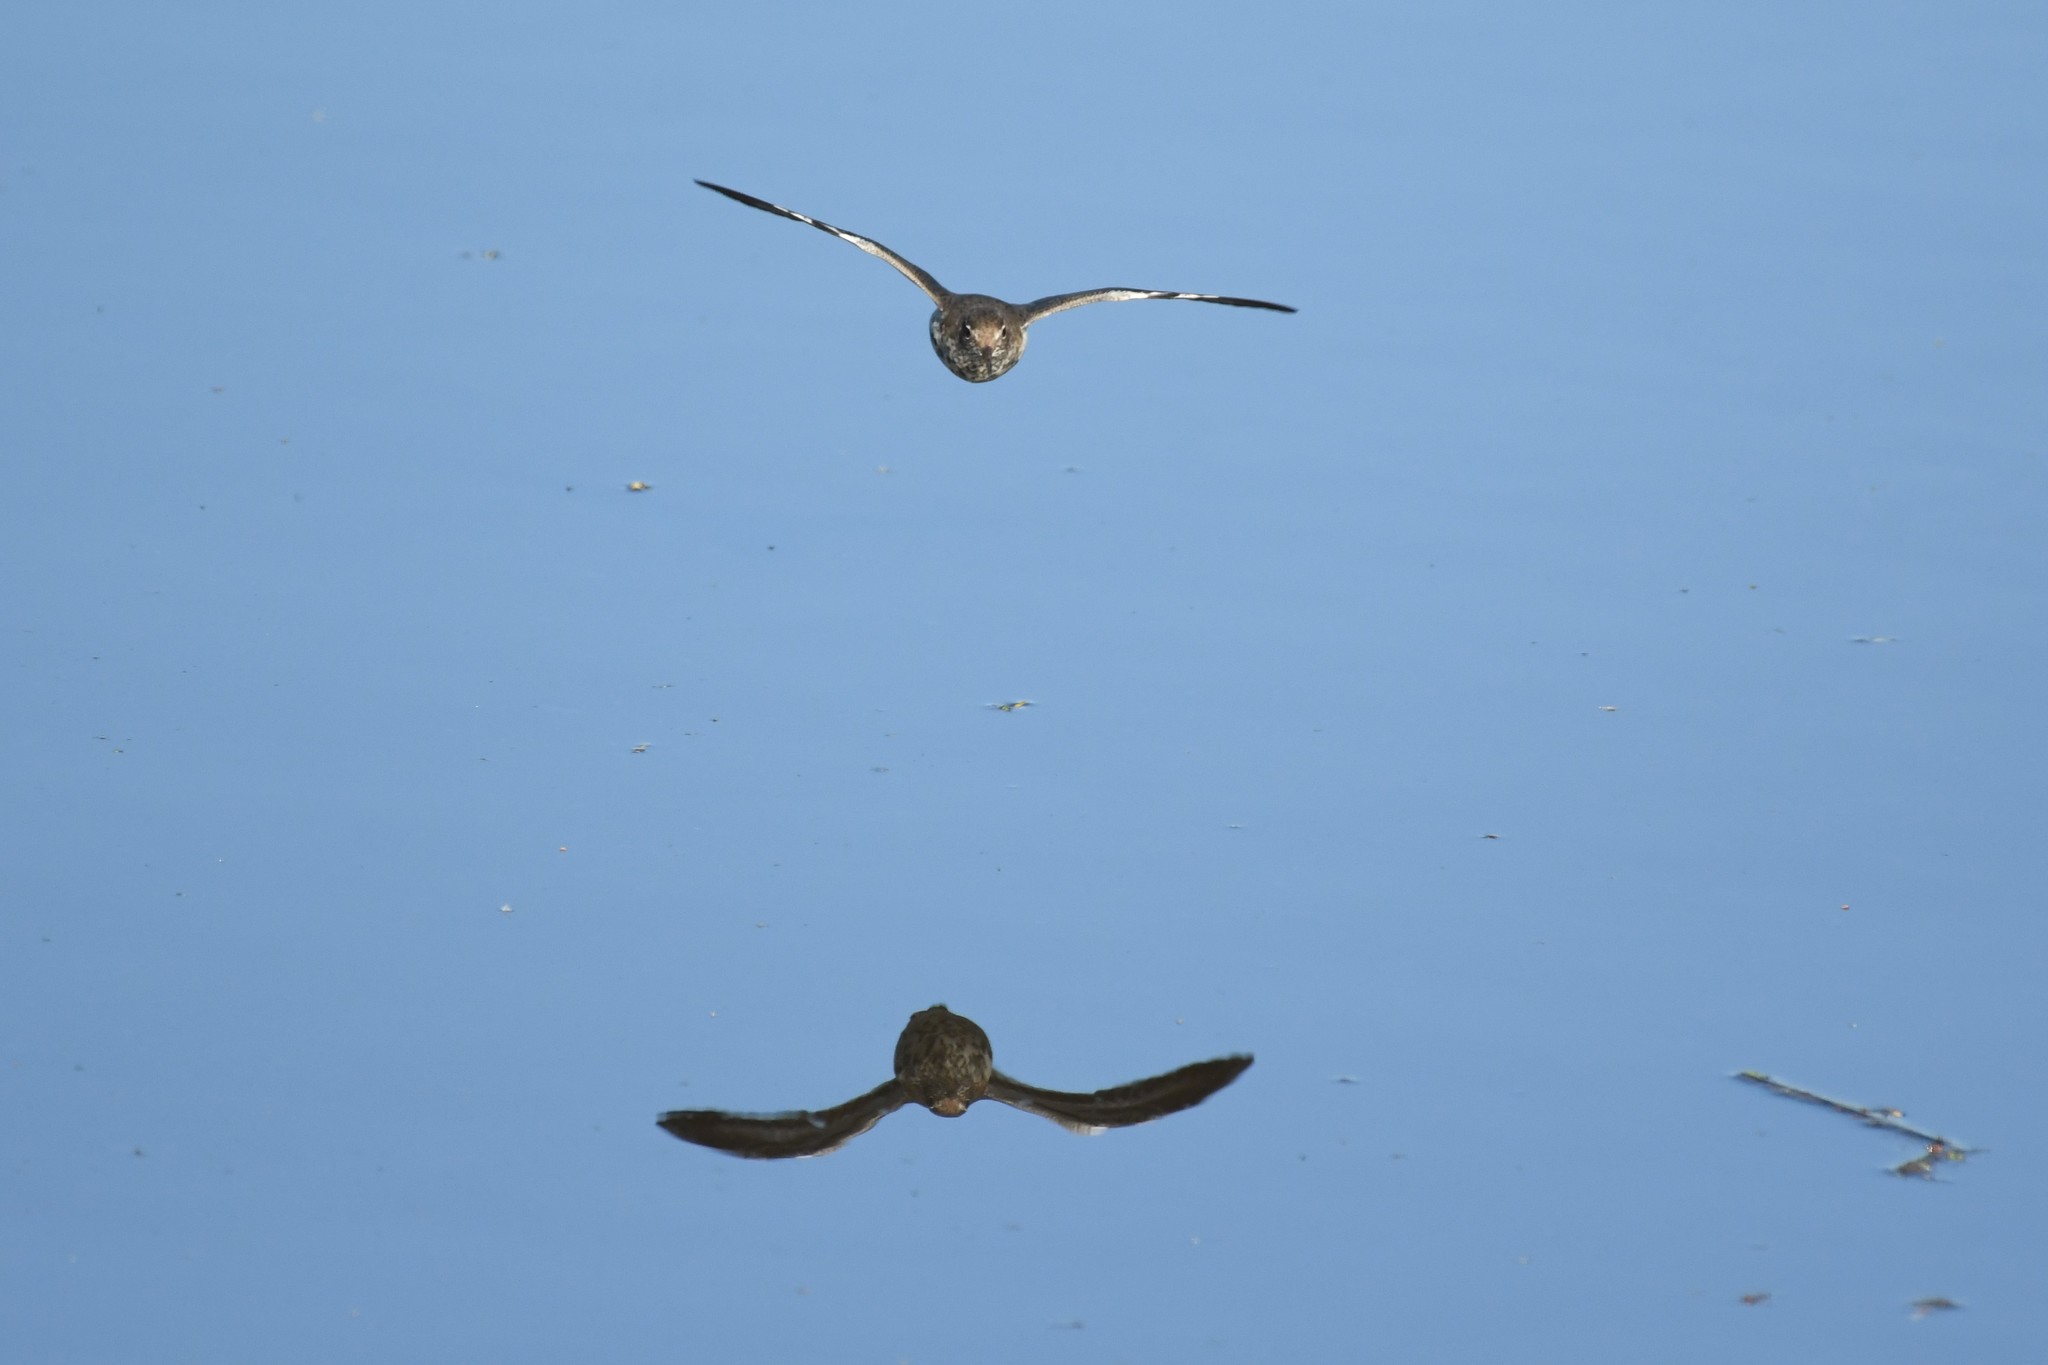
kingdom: Animalia
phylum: Chordata
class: Aves
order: Charadriiformes
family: Scolopacidae
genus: Actitis
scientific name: Actitis macularius
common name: Spotted sandpiper
